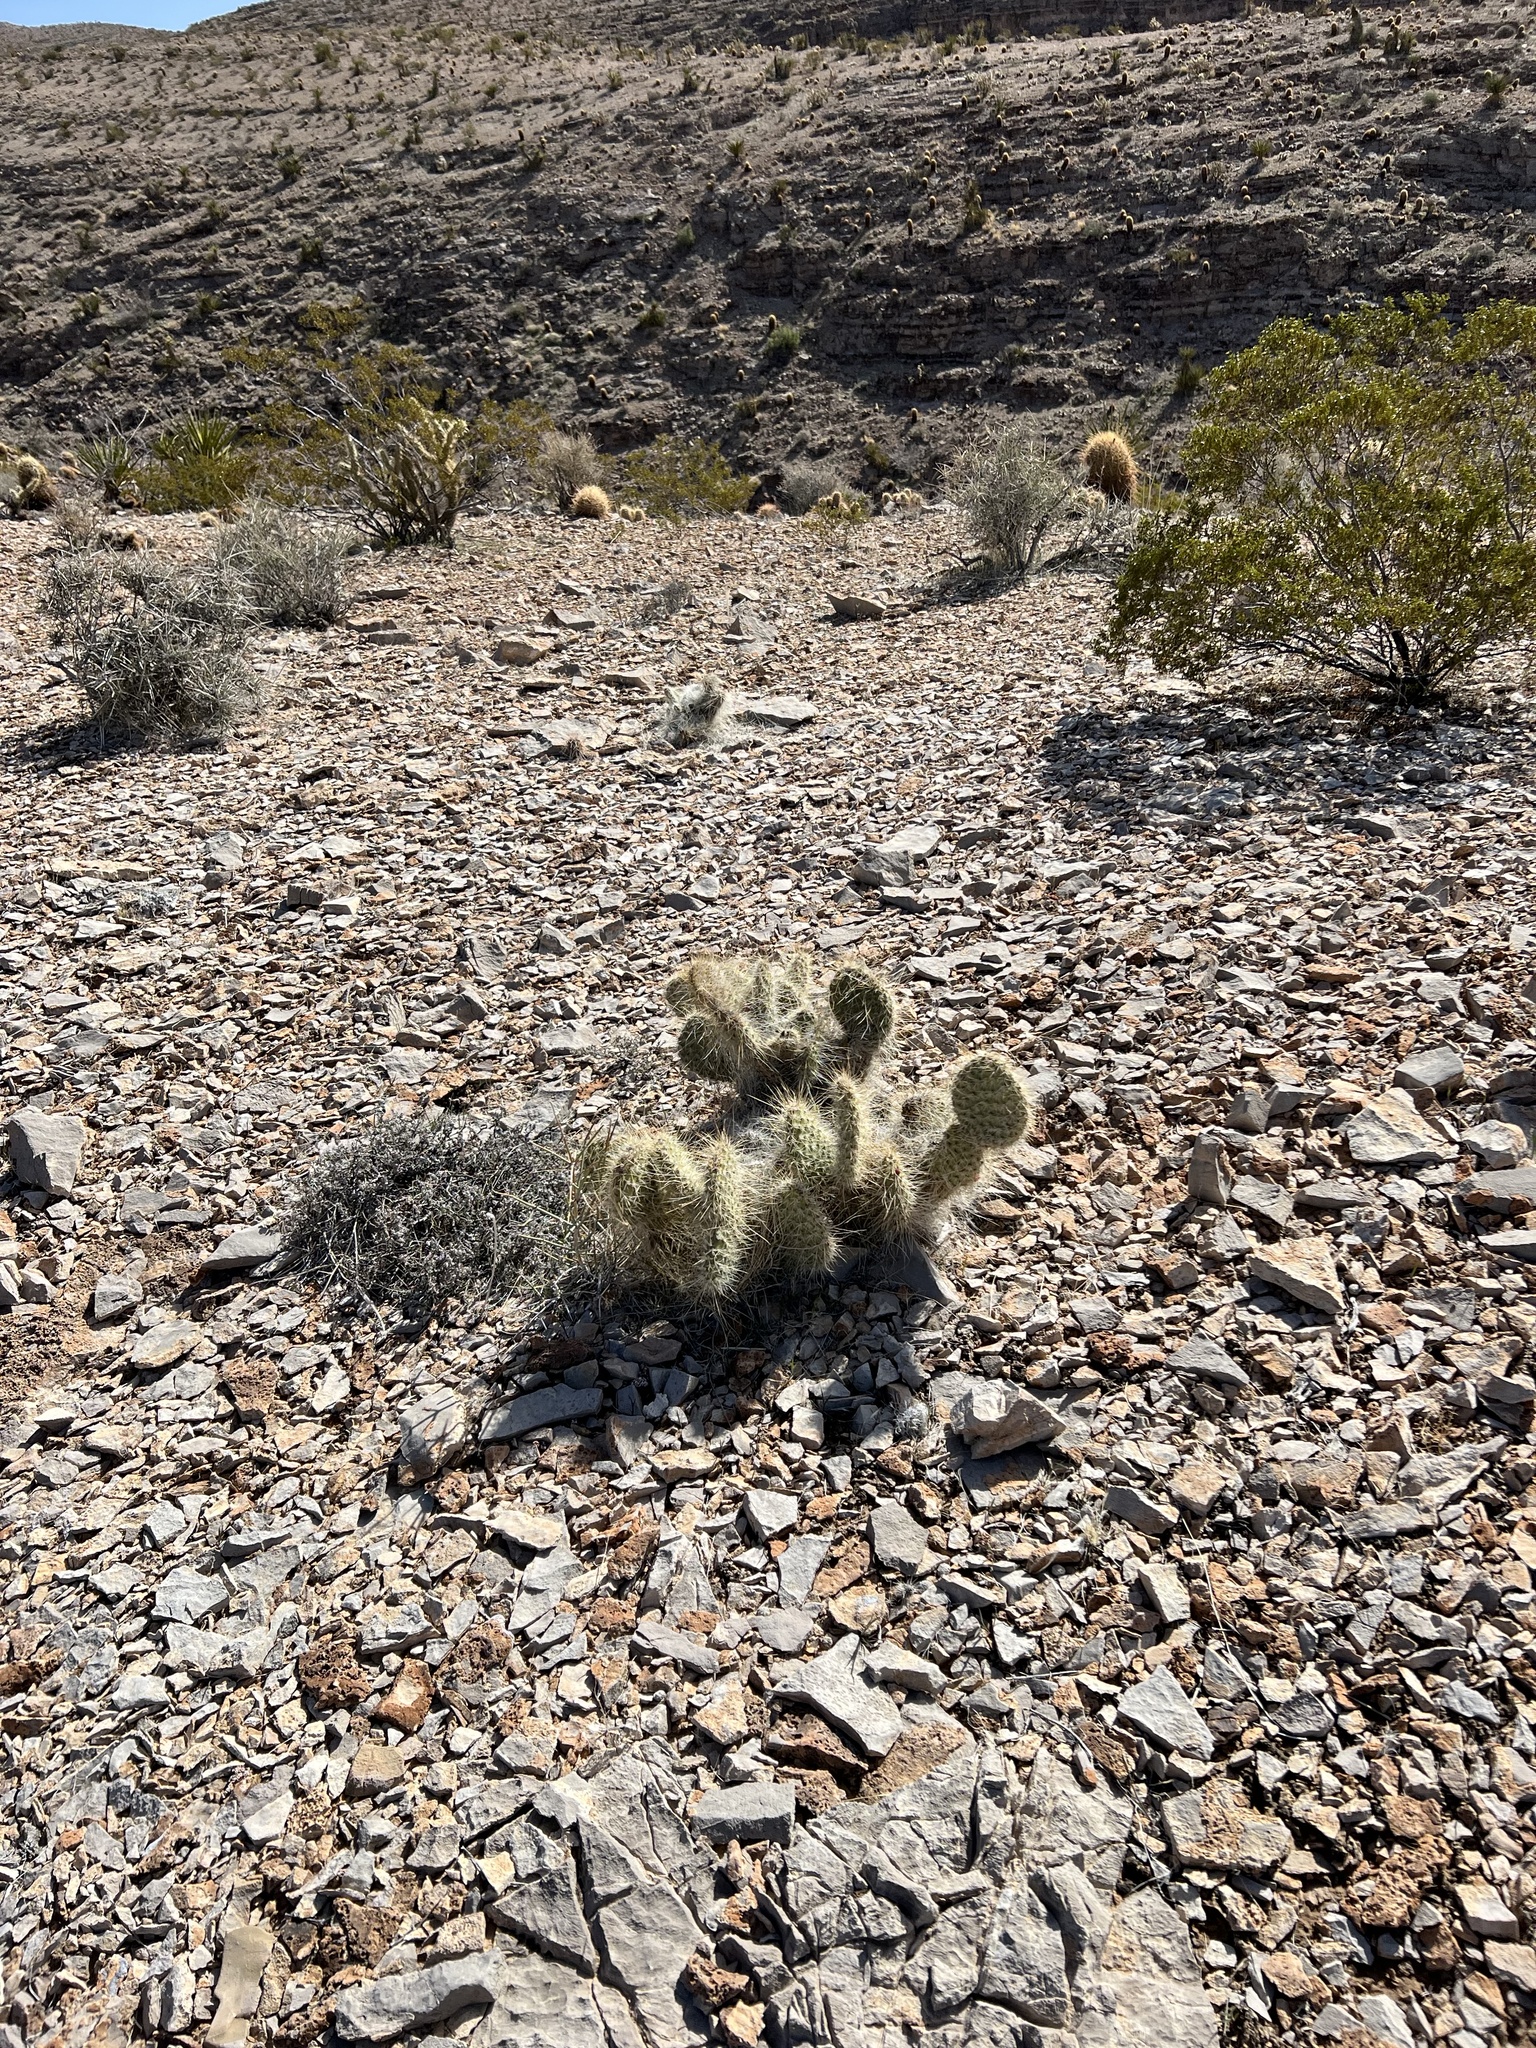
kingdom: Plantae
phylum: Tracheophyta
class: Magnoliopsida
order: Caryophyllales
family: Cactaceae
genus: Opuntia
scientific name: Opuntia polyacantha
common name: Plains prickly-pear
